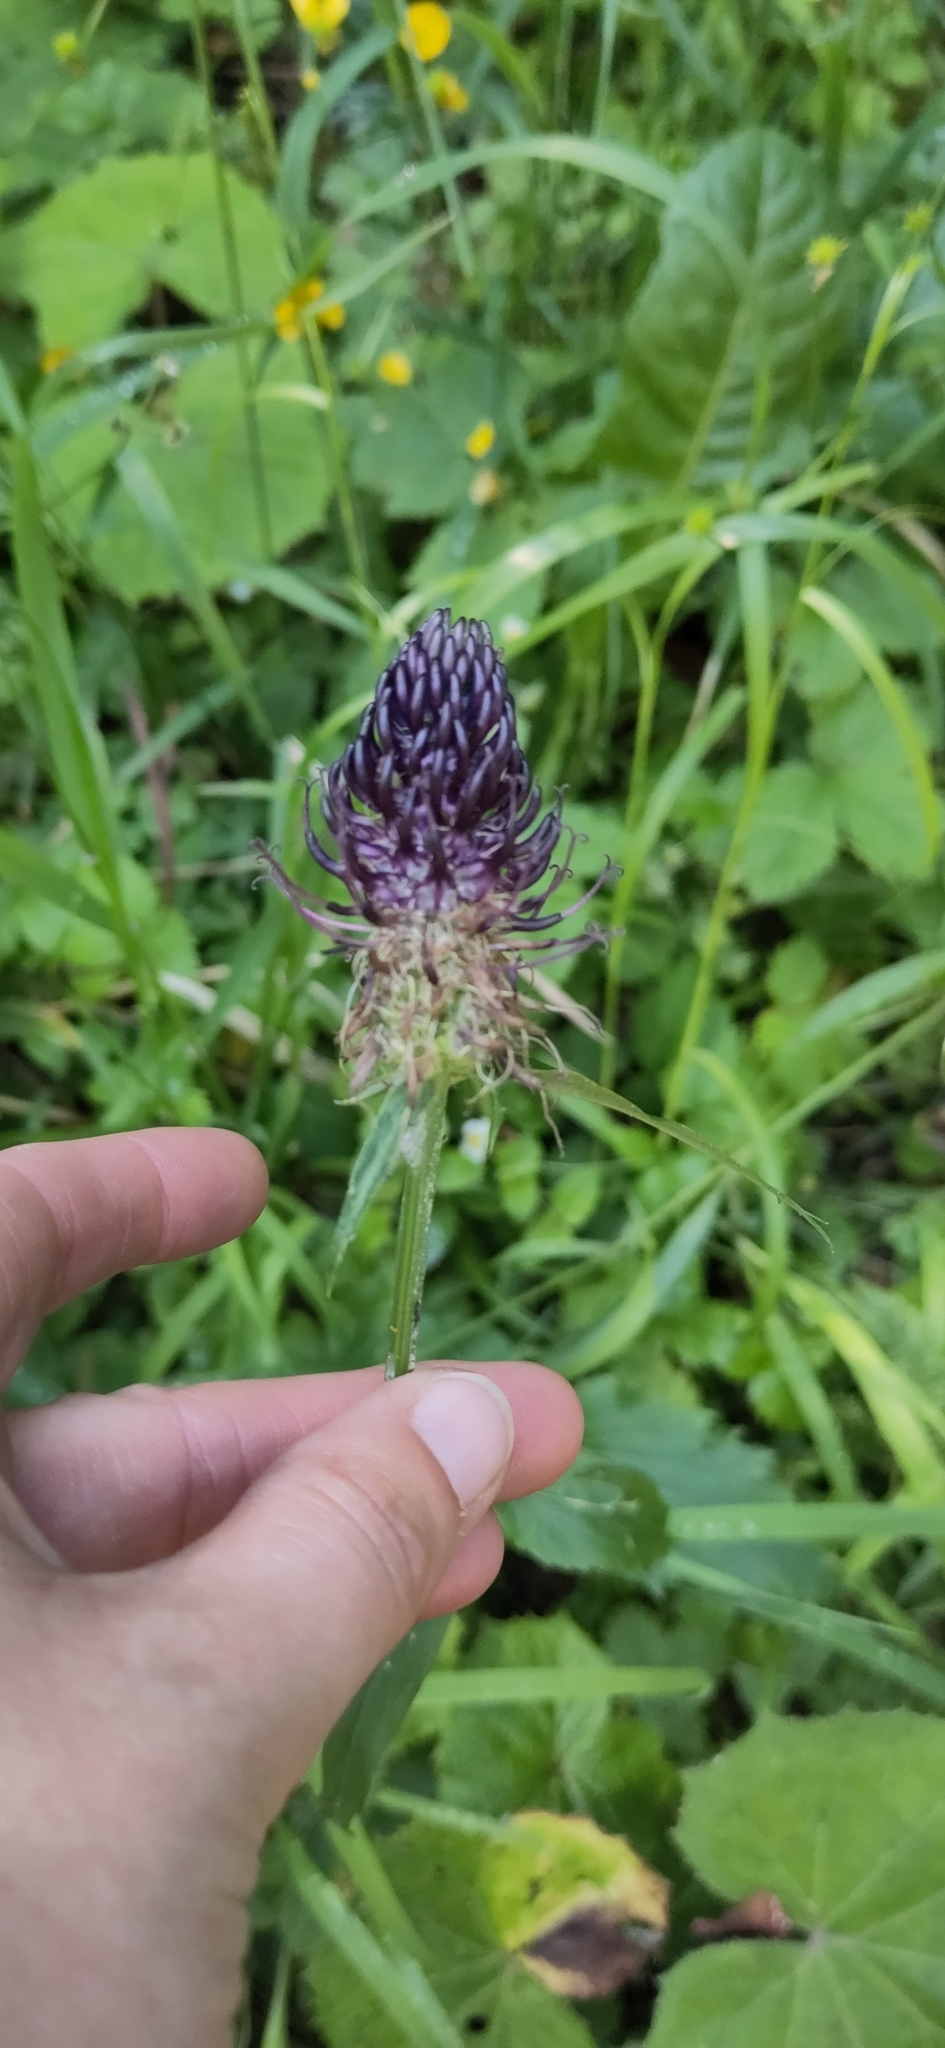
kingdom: Plantae
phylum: Tracheophyta
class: Magnoliopsida
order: Asterales
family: Campanulaceae
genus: Phyteuma
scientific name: Phyteuma ovatum
